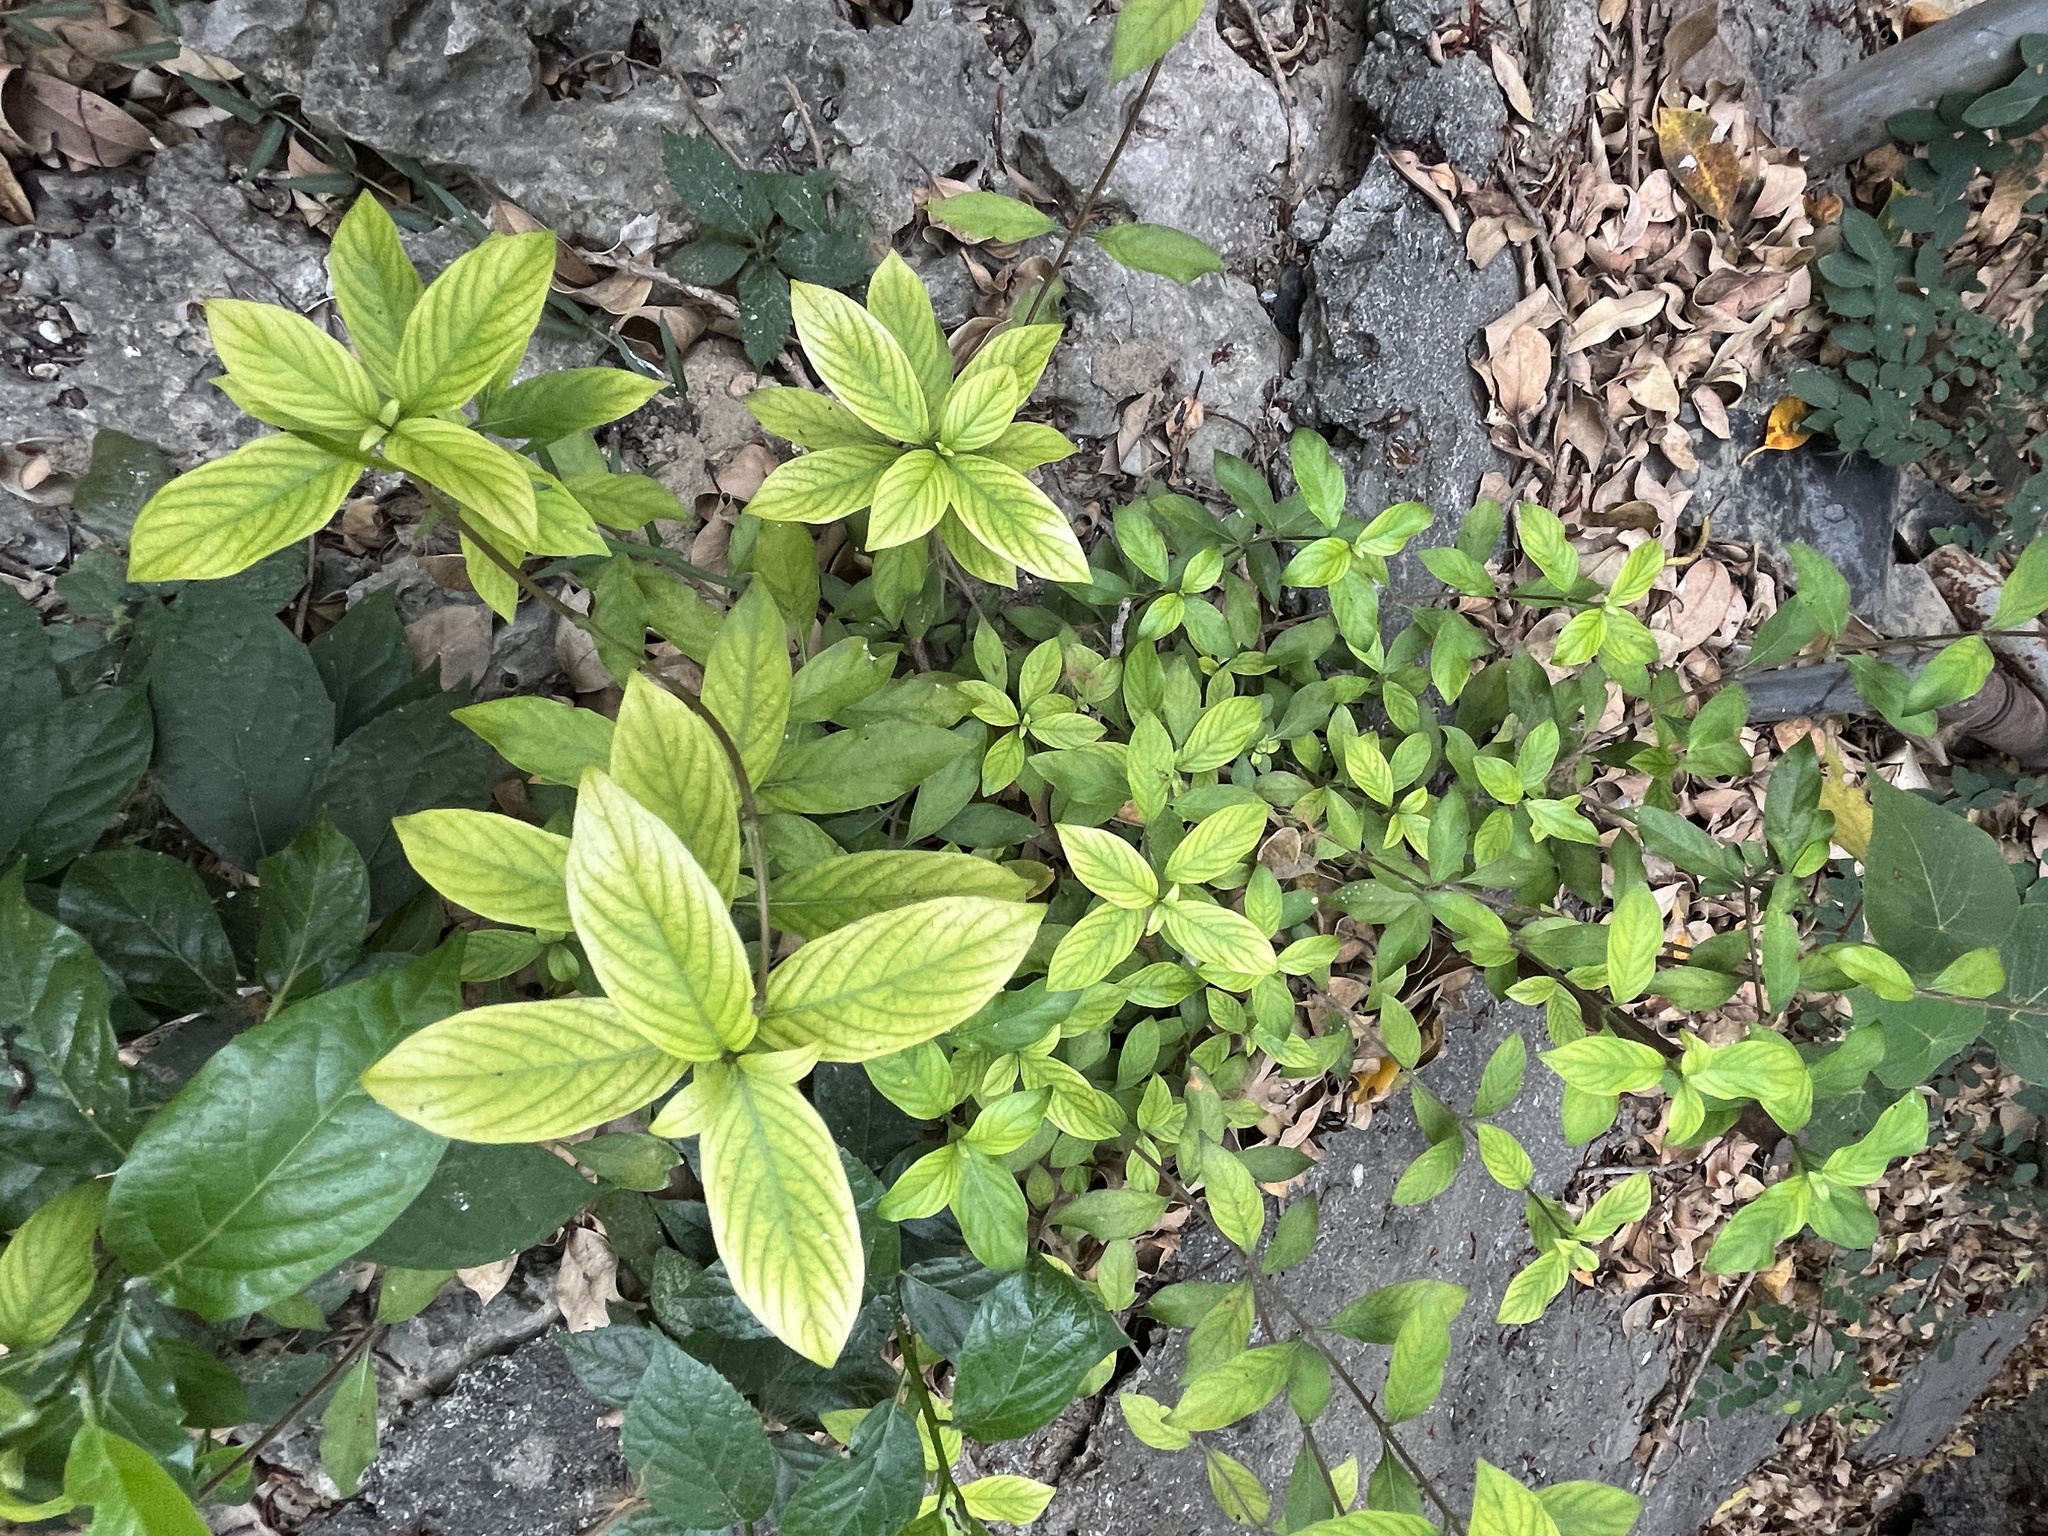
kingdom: Plantae
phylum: Tracheophyta
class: Magnoliopsida
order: Gentianales
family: Rubiaceae
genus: Mussaenda
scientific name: Mussaenda pubescens
